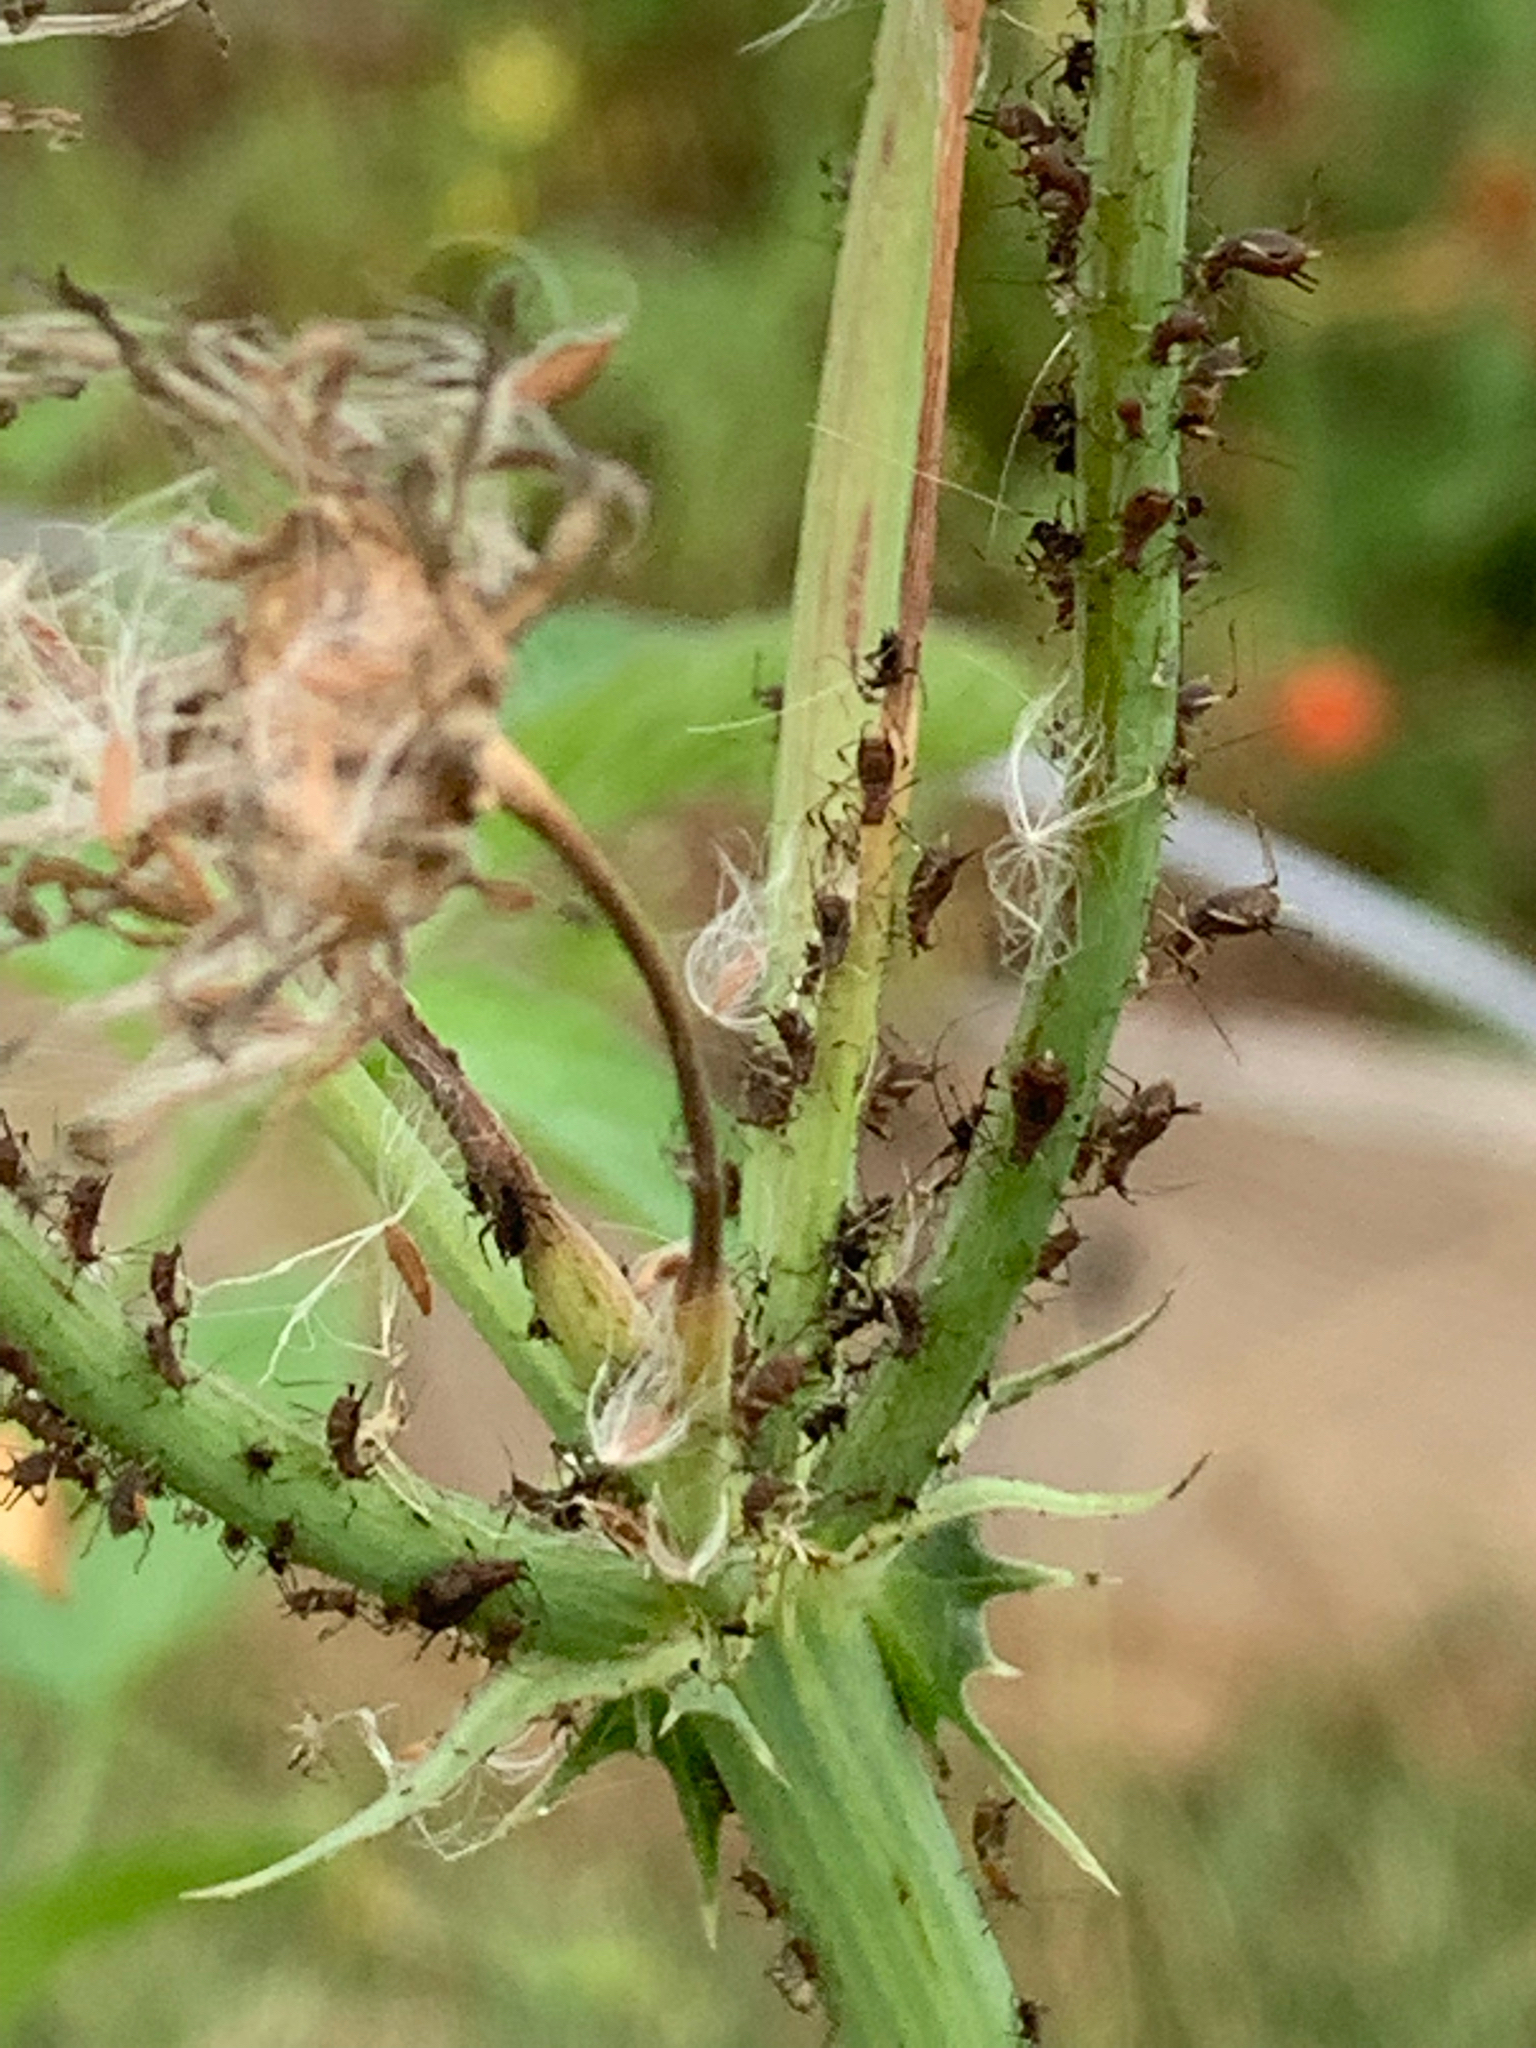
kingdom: Animalia
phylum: Arthropoda
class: Insecta
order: Hemiptera
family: Aphididae
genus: Uroleucon
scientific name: Uroleucon
